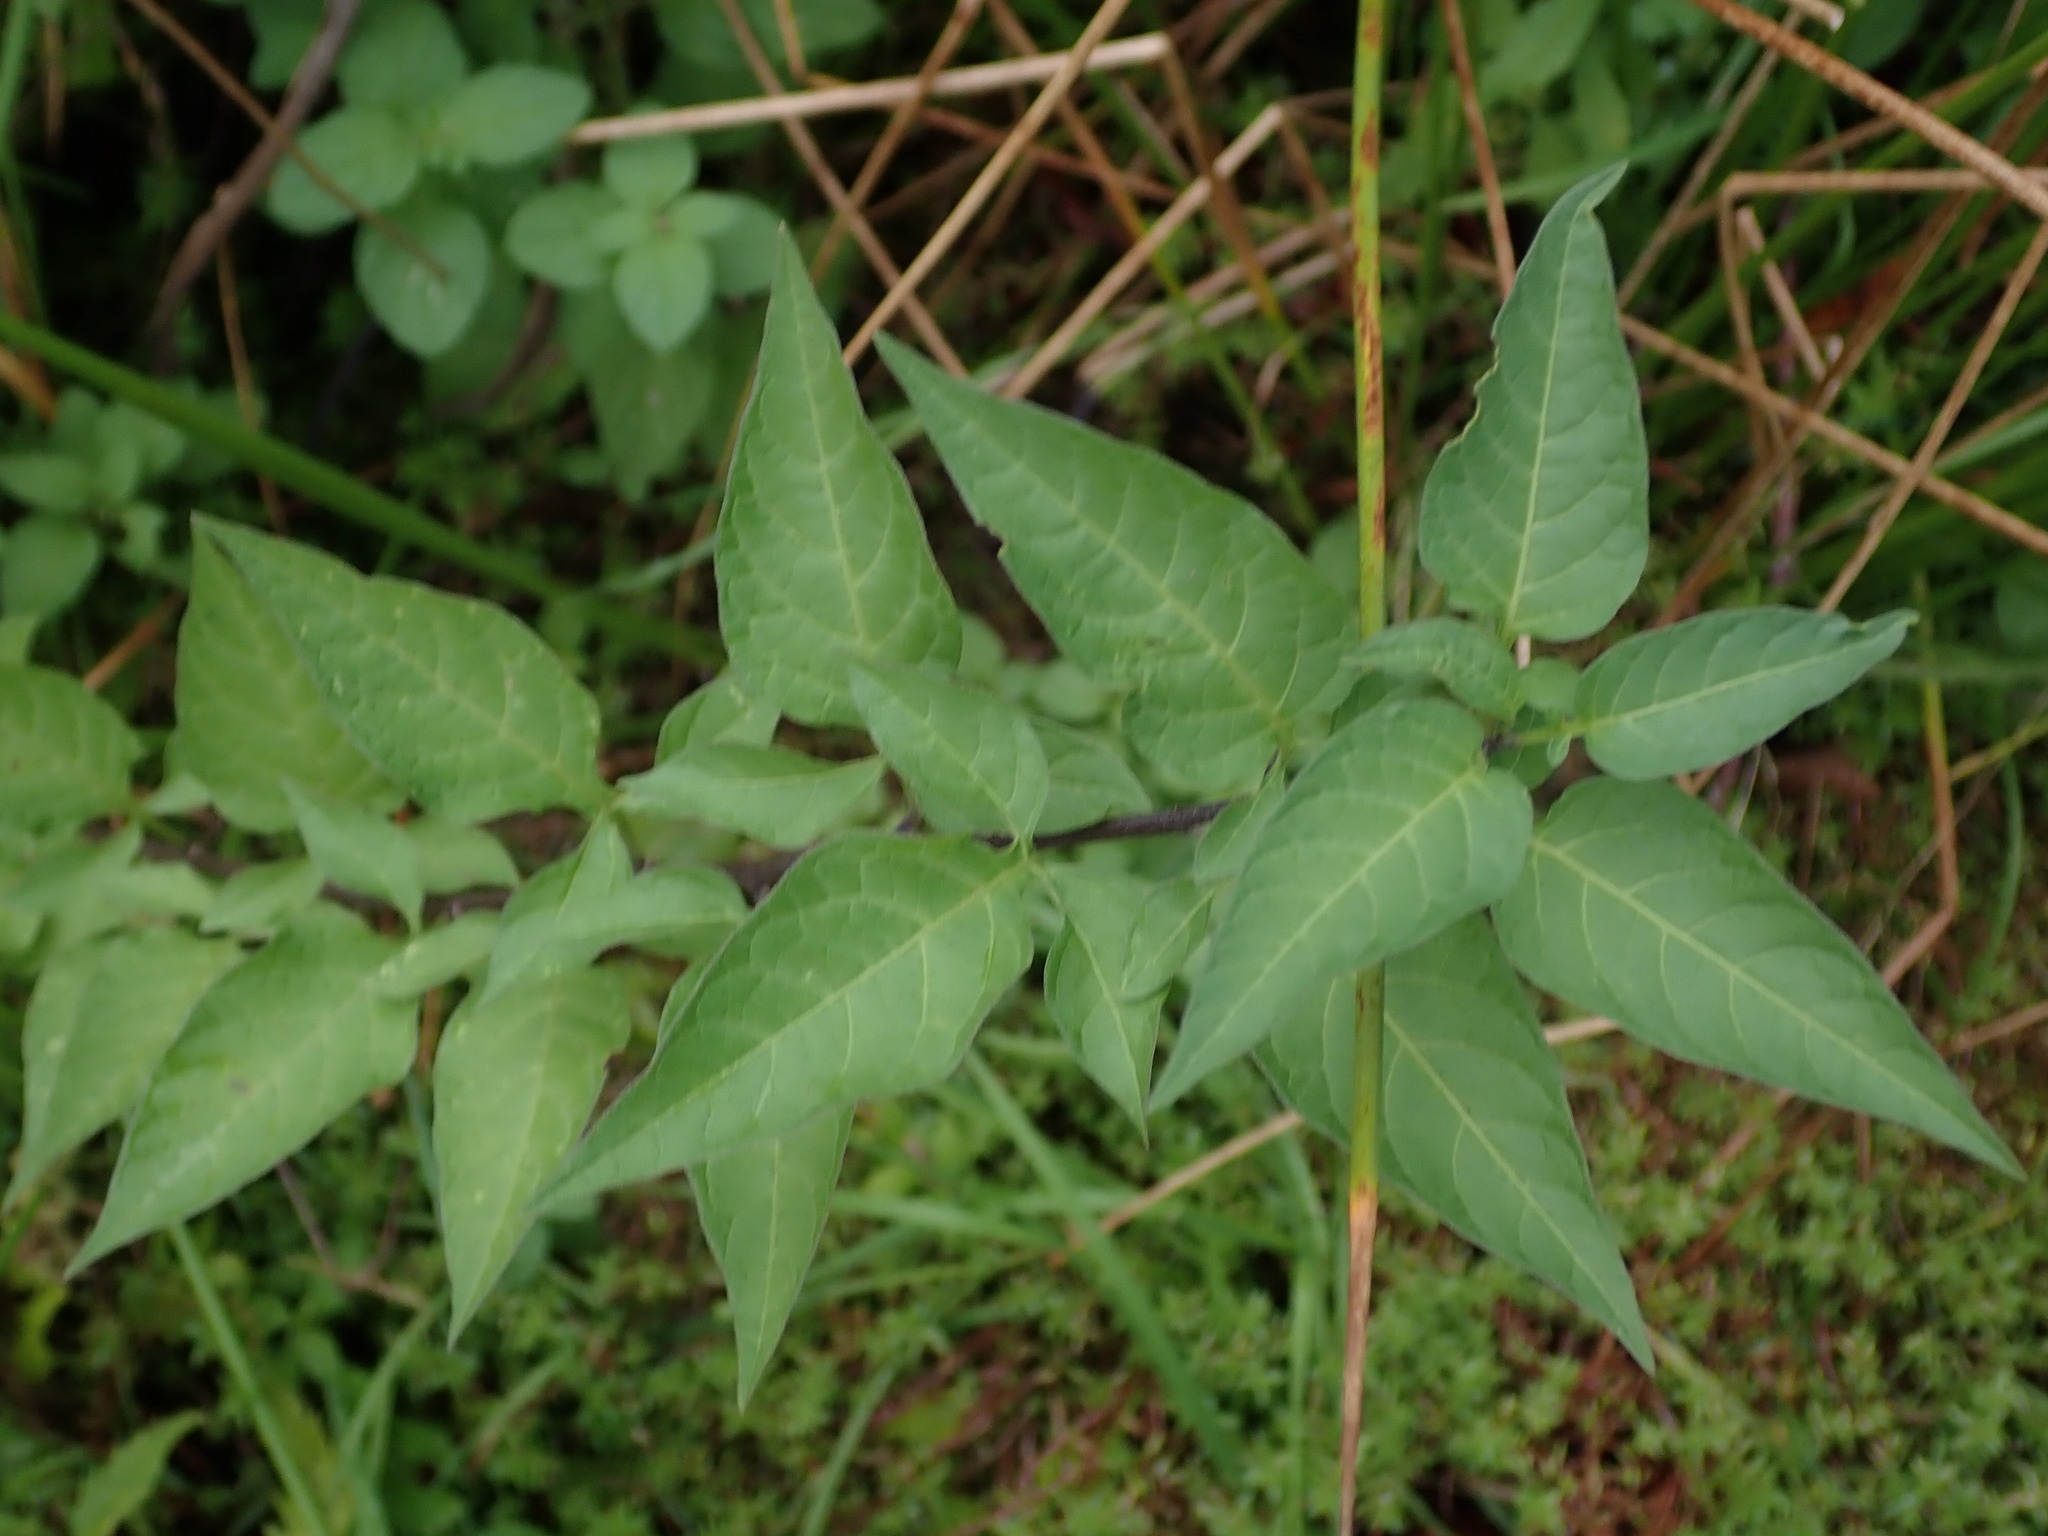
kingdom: Plantae
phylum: Tracheophyta
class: Magnoliopsida
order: Solanales
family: Solanaceae
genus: Solanum
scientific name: Solanum dulcamara
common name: Climbing nightshade
